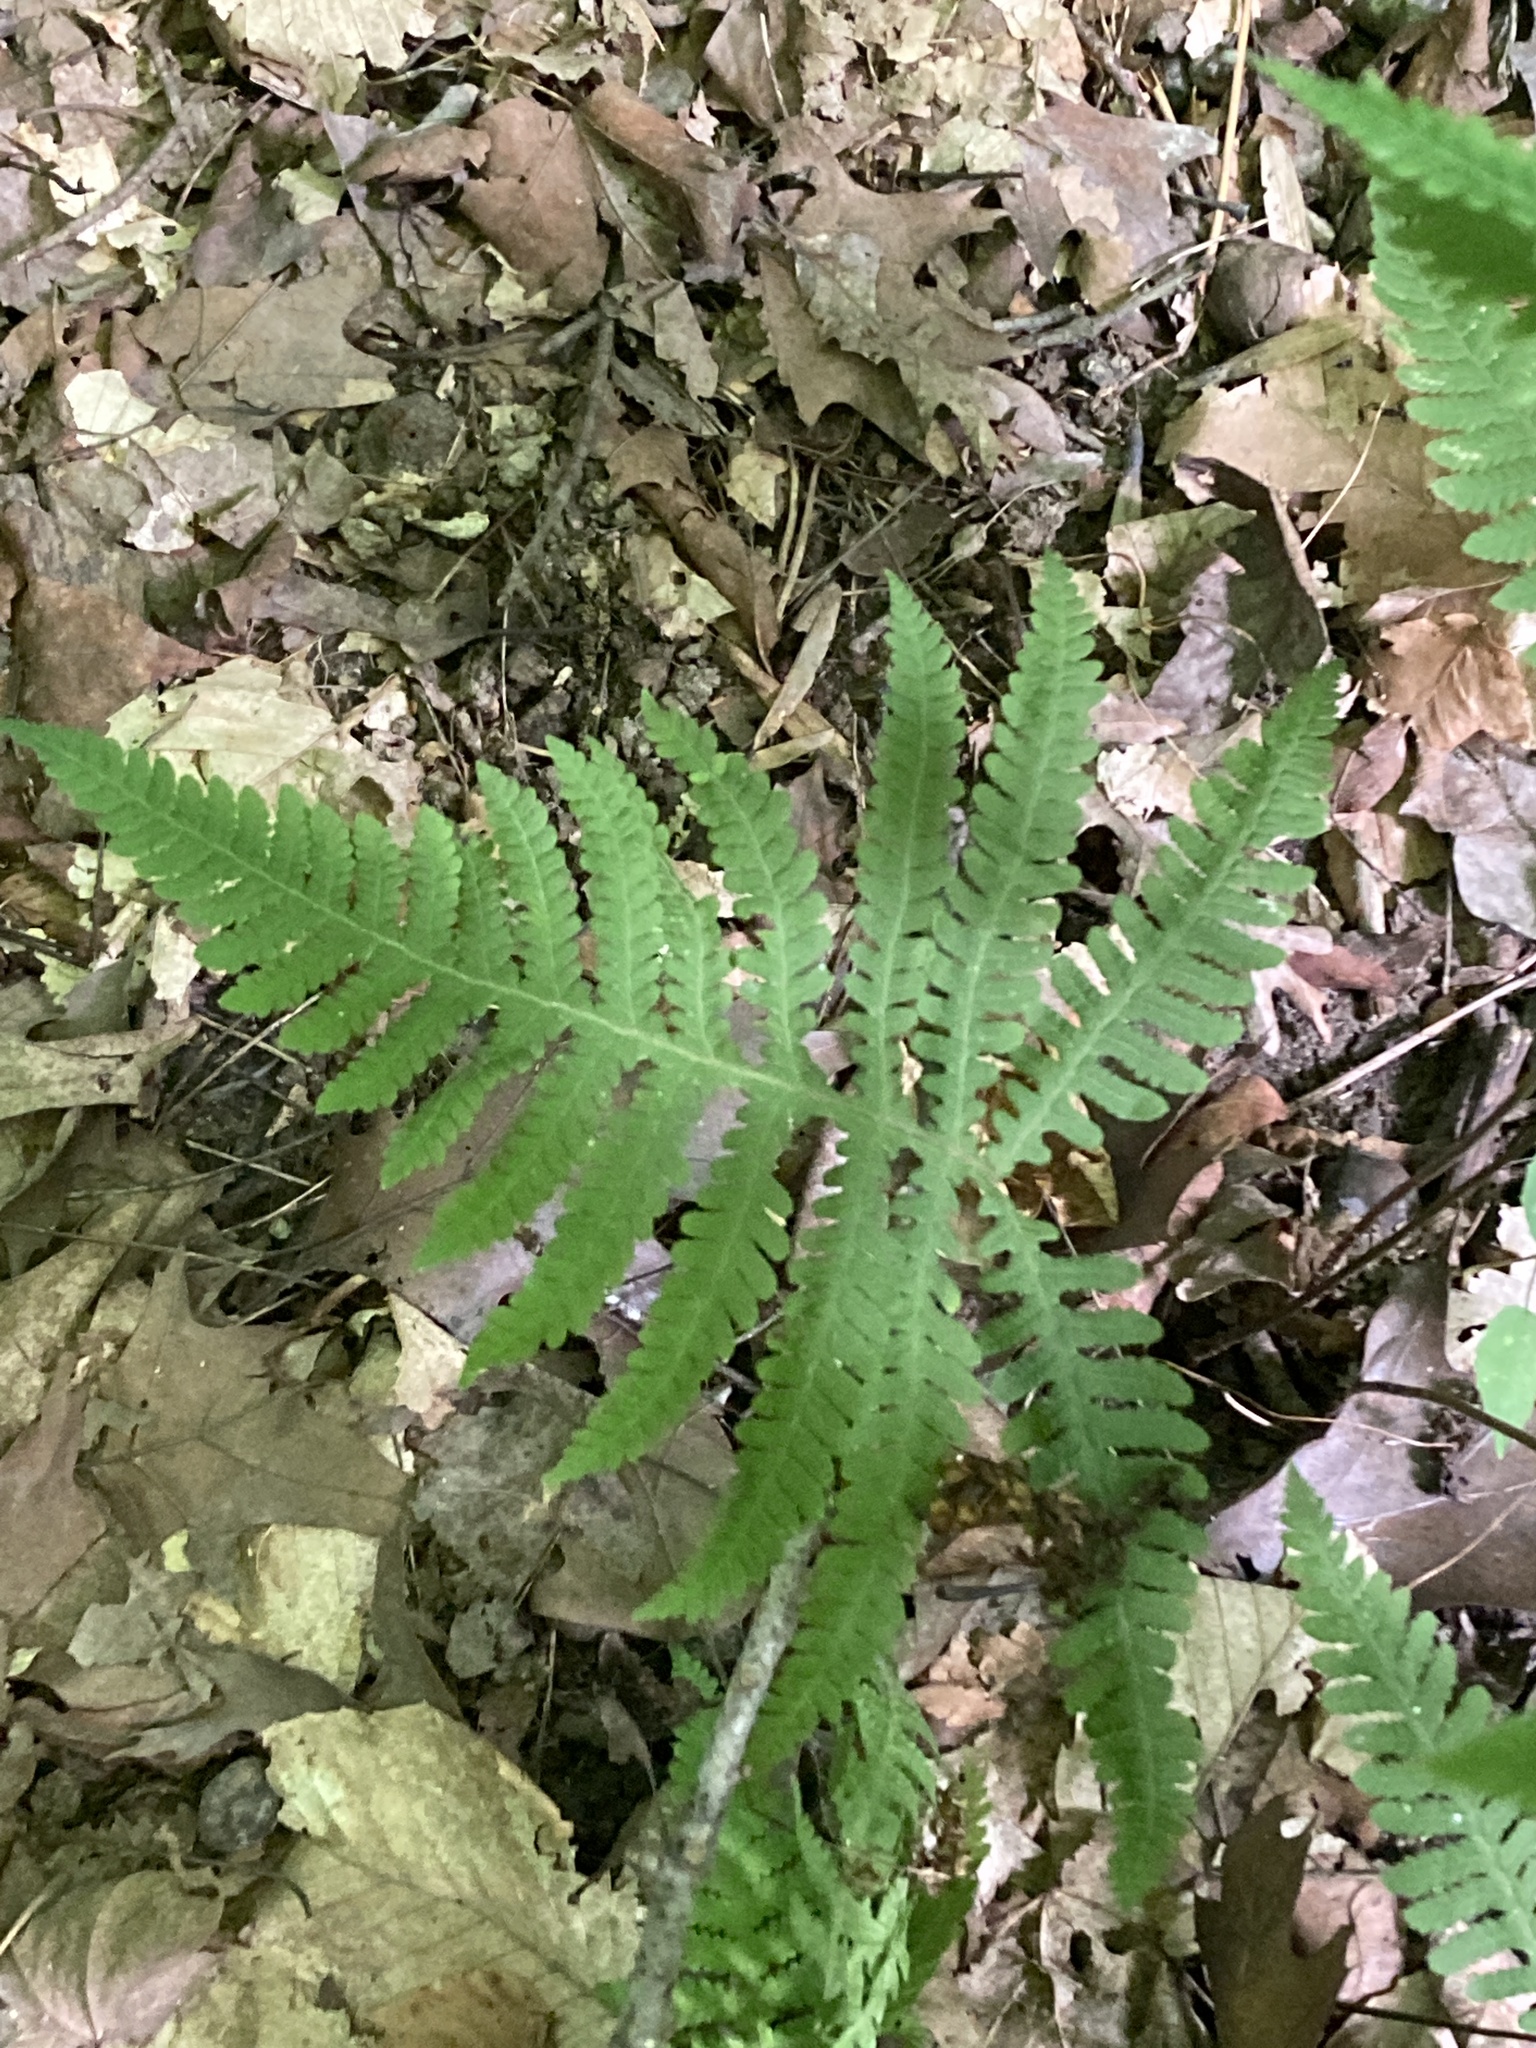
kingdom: Plantae
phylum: Tracheophyta
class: Polypodiopsida
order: Polypodiales
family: Thelypteridaceae
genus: Phegopteris
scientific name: Phegopteris hexagonoptera
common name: Broad beech fern
